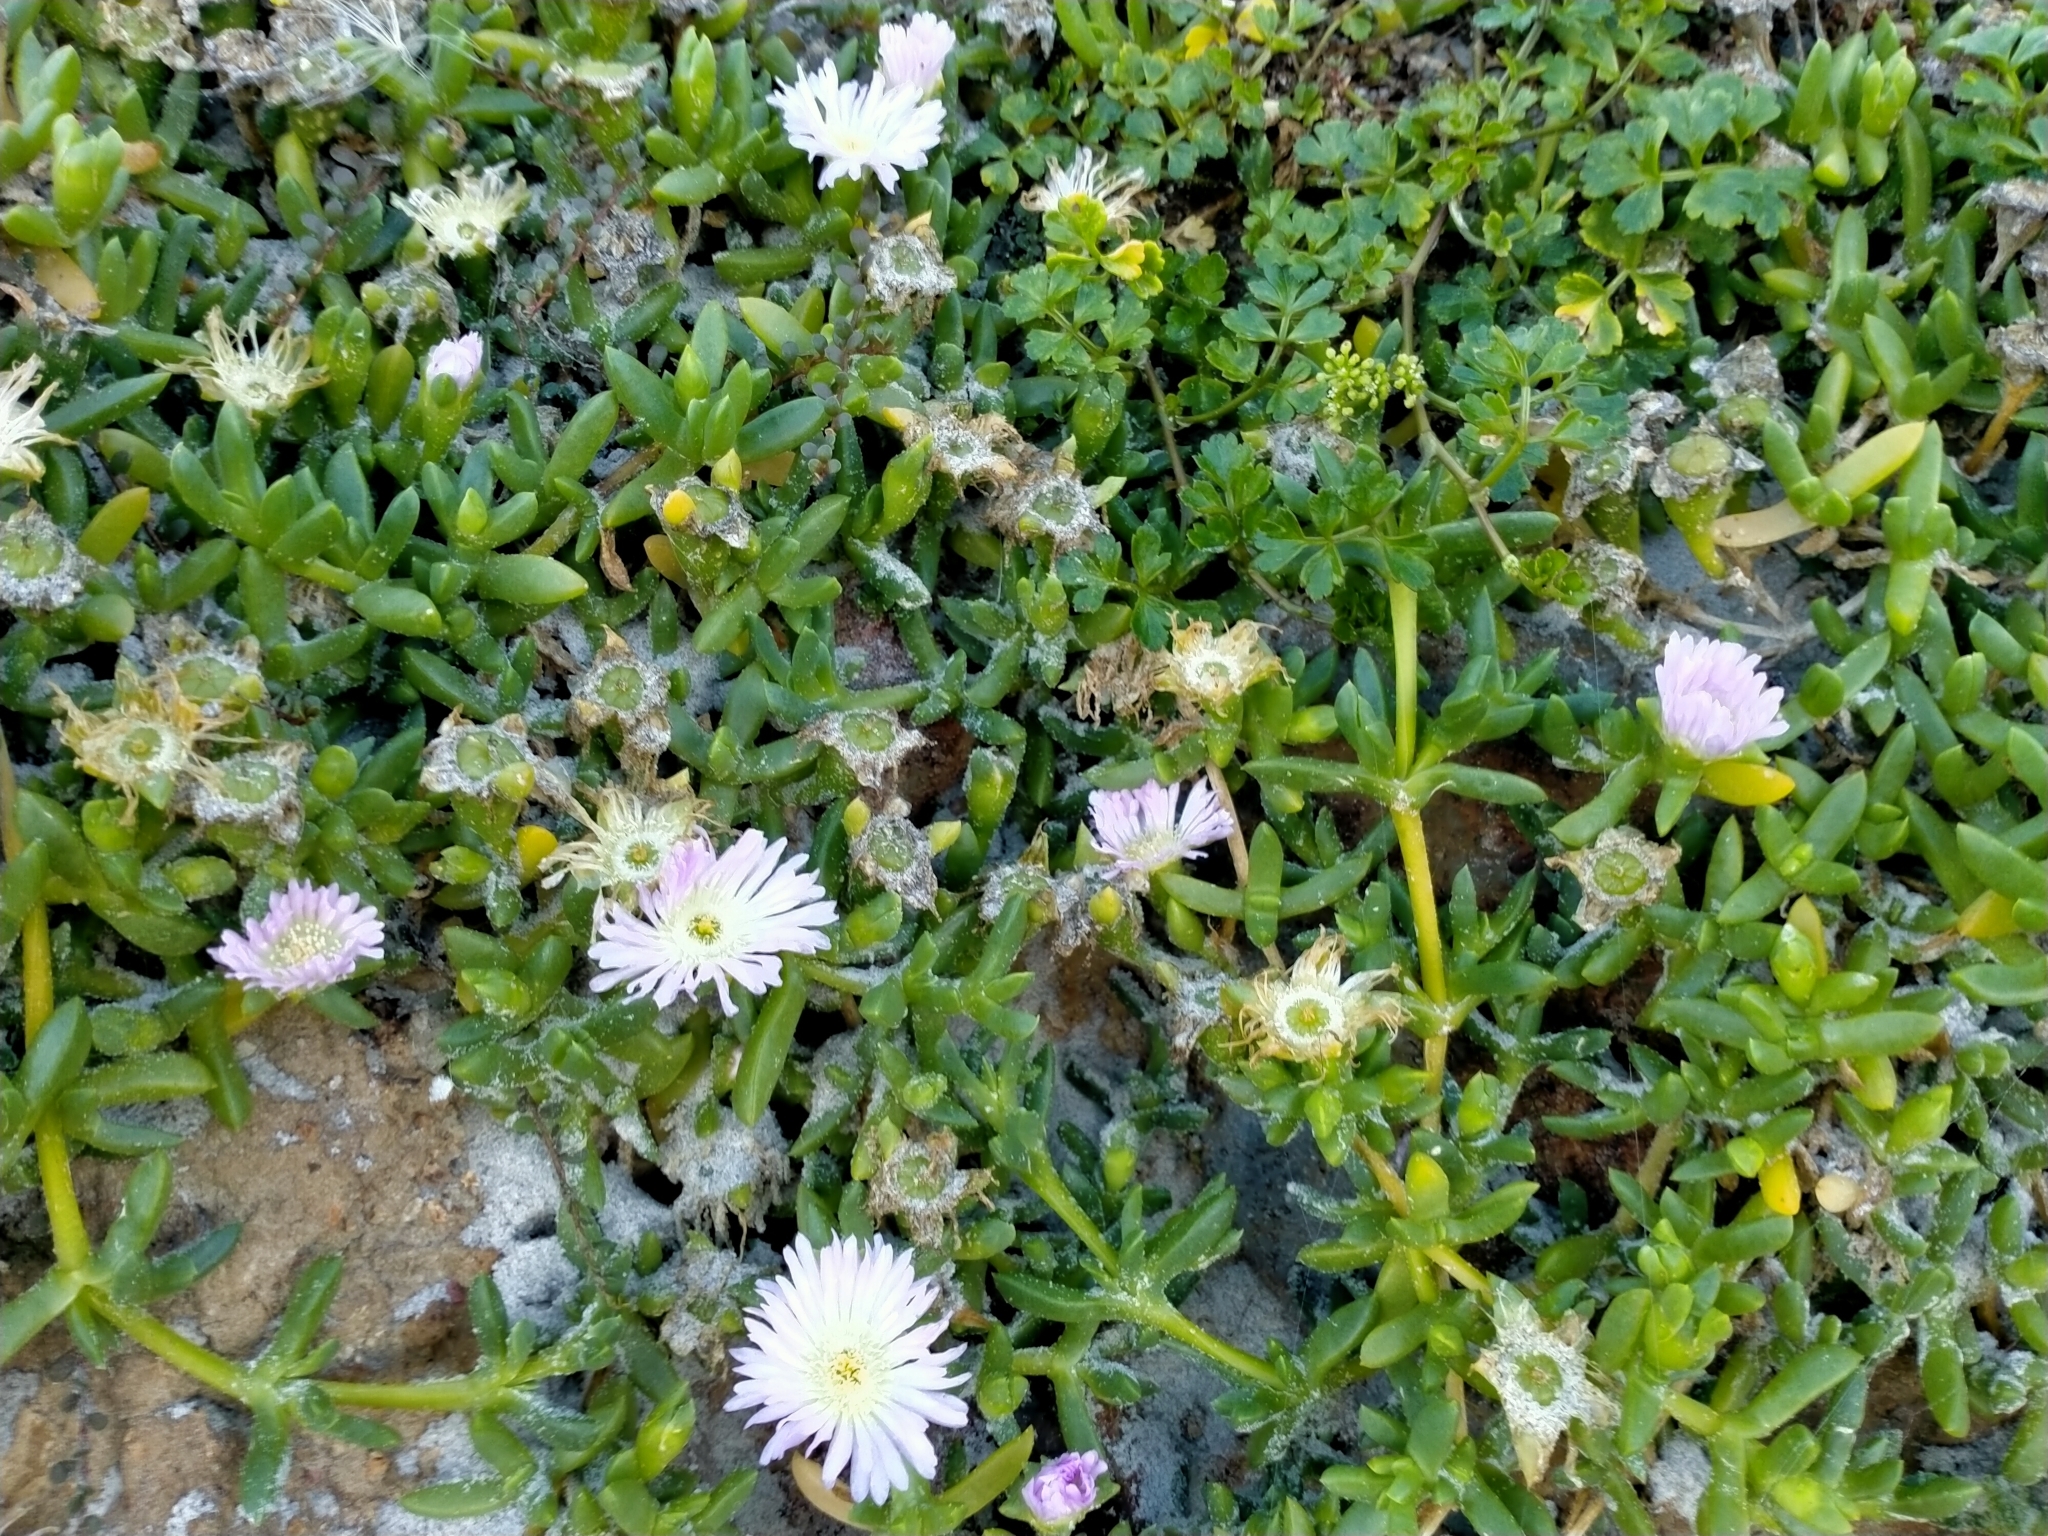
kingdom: Plantae
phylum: Tracheophyta
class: Magnoliopsida
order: Caryophyllales
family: Aizoaceae
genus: Disphyma
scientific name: Disphyma australe
